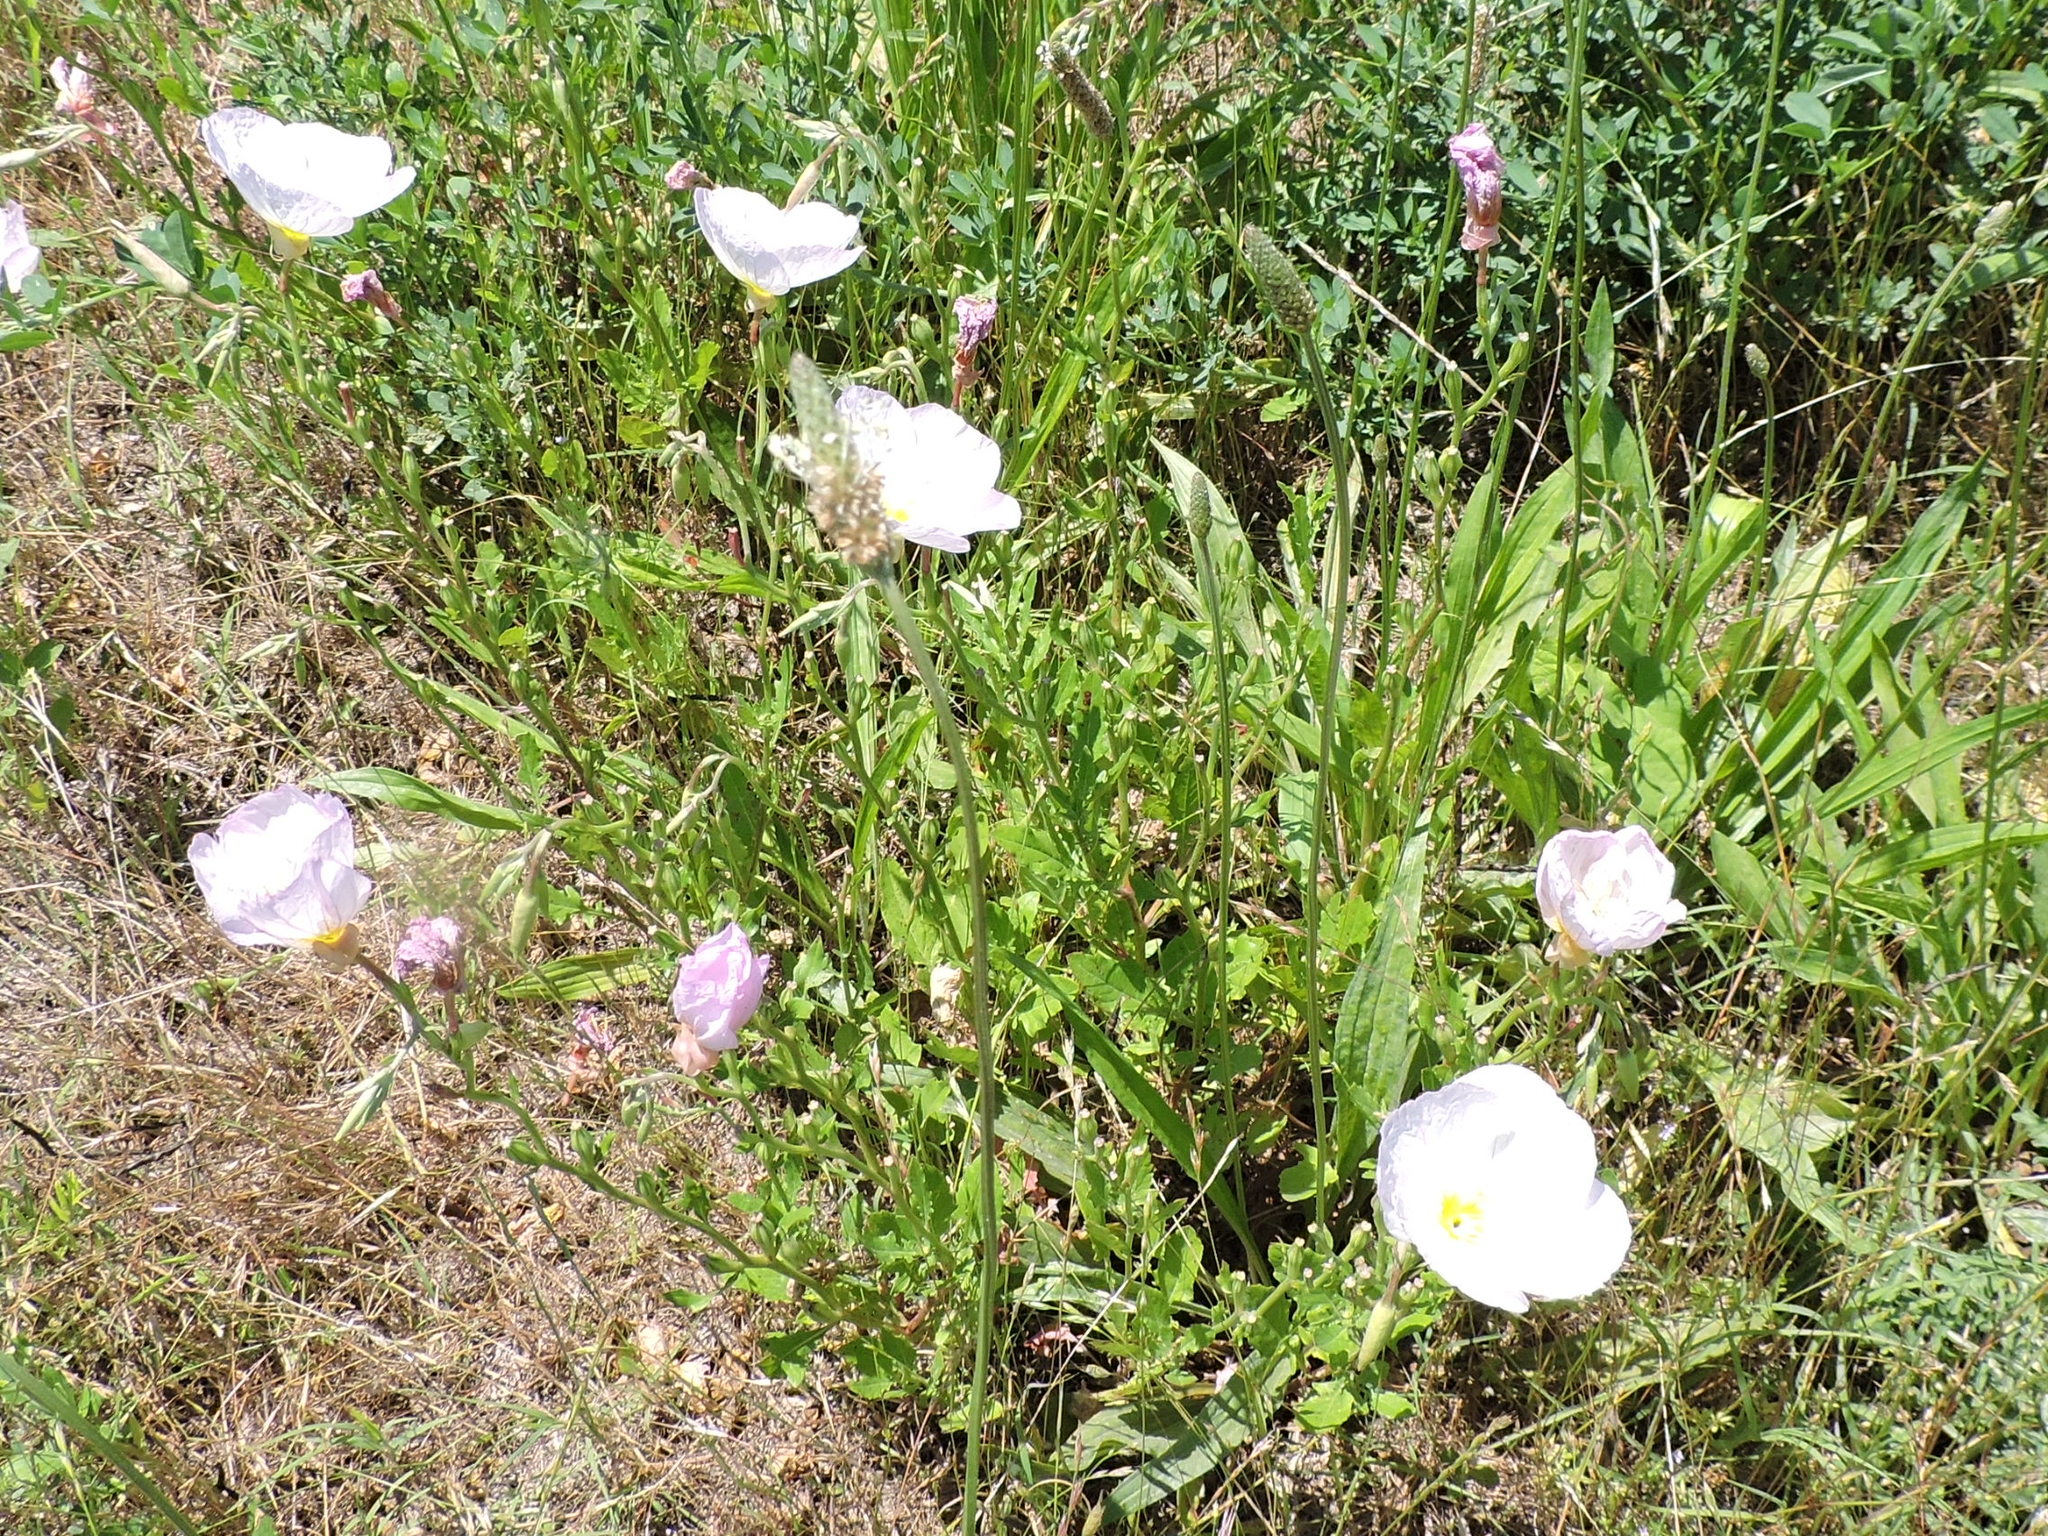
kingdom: Plantae
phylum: Tracheophyta
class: Magnoliopsida
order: Myrtales
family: Onagraceae
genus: Oenothera
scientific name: Oenothera speciosa
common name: White evening-primrose
